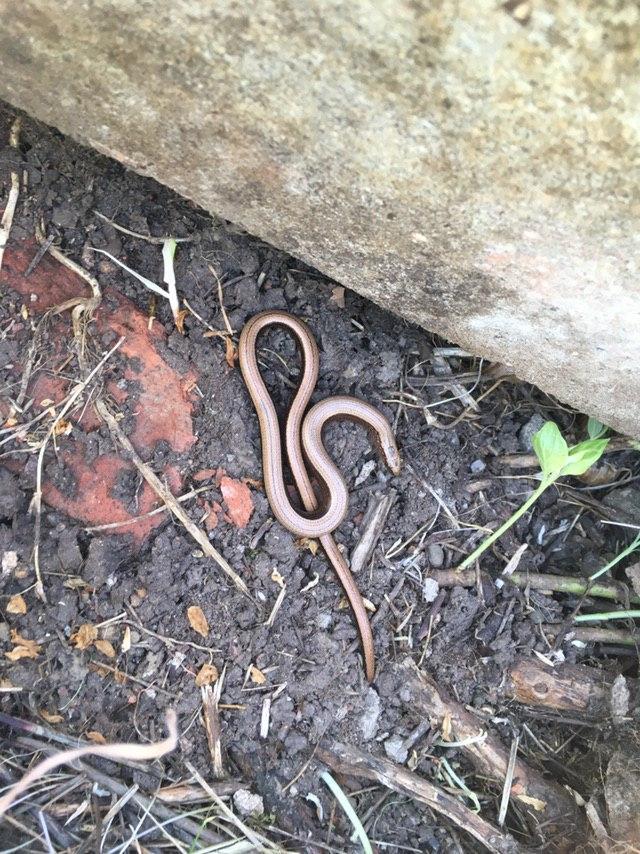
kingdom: Animalia
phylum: Chordata
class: Squamata
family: Anguidae
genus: Anguis
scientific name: Anguis fragilis
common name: Slow worm
